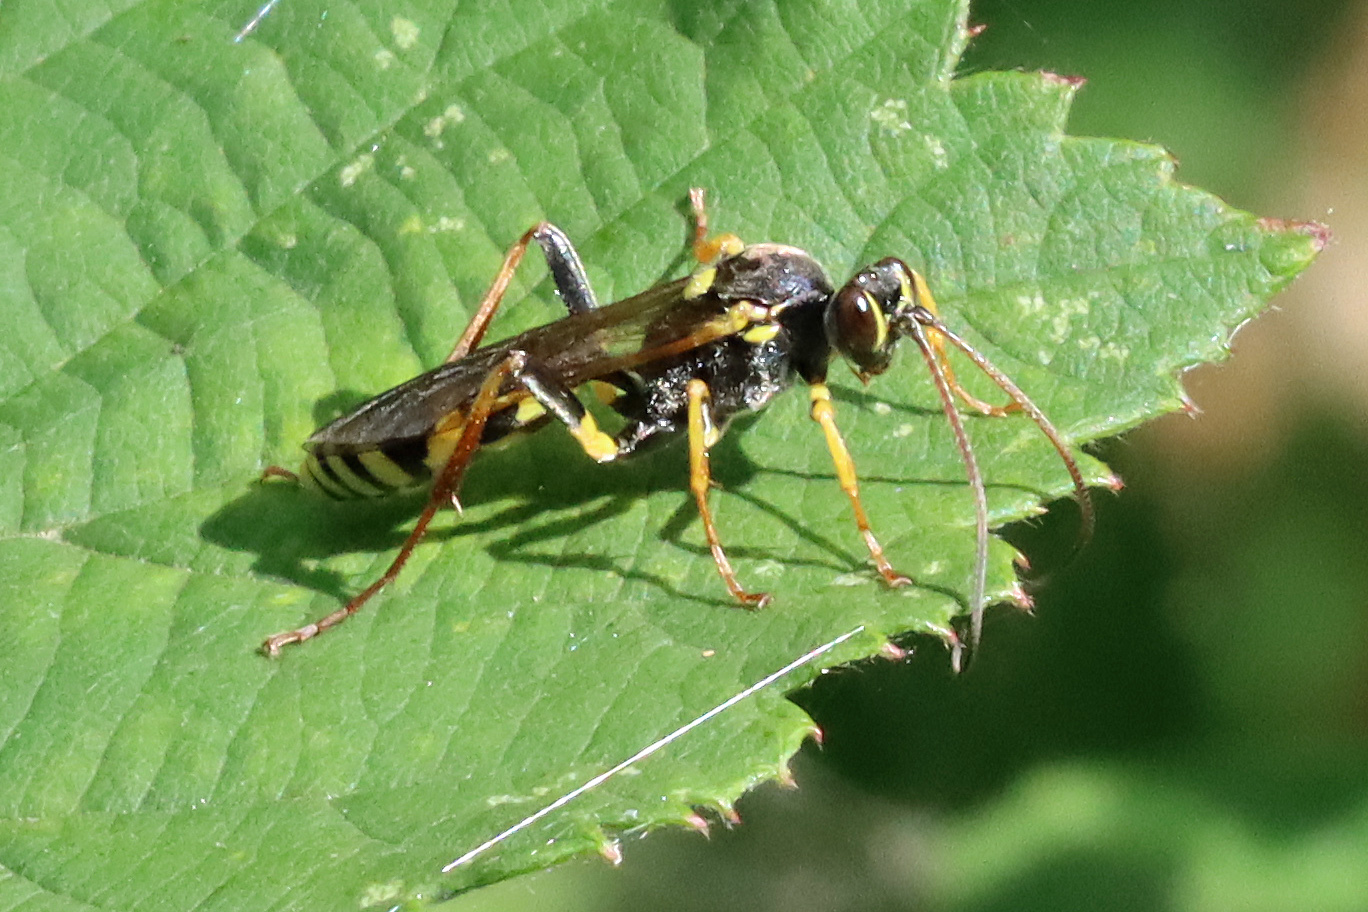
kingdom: Animalia
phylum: Arthropoda
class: Insecta
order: Hymenoptera
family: Ichneumonidae
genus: Amblyteles
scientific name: Amblyteles armatorius
